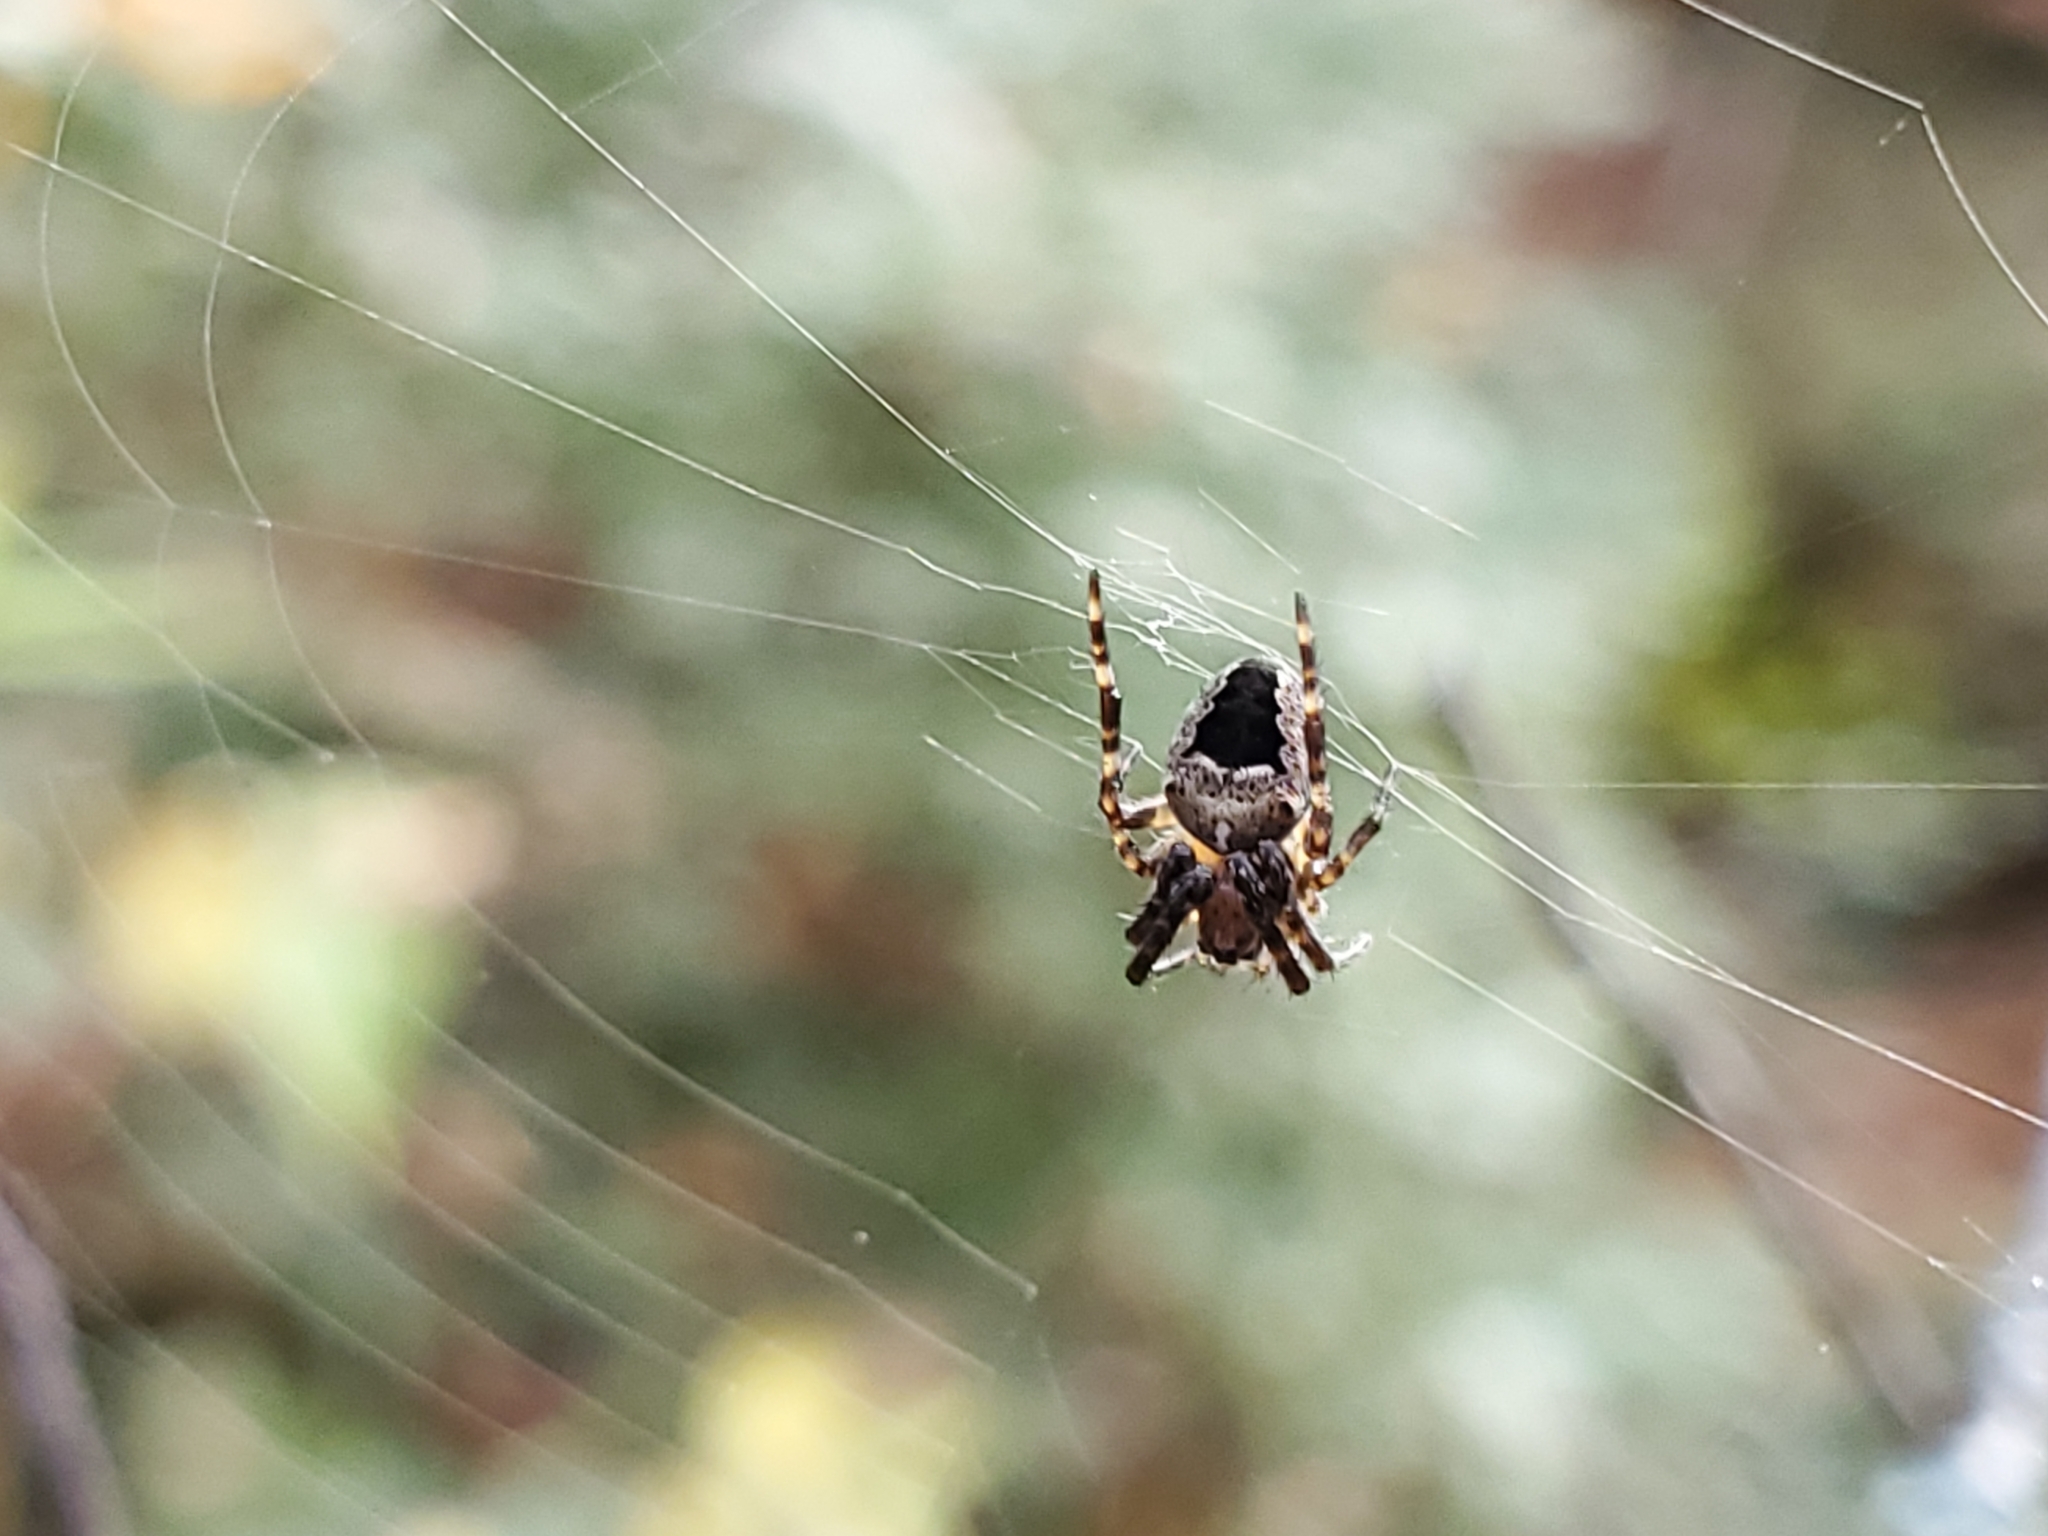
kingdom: Animalia
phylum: Arthropoda
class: Arachnida
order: Araneae
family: Araneidae
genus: Araneus
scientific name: Araneus nordmanni
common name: Nordmann's orbweaver
